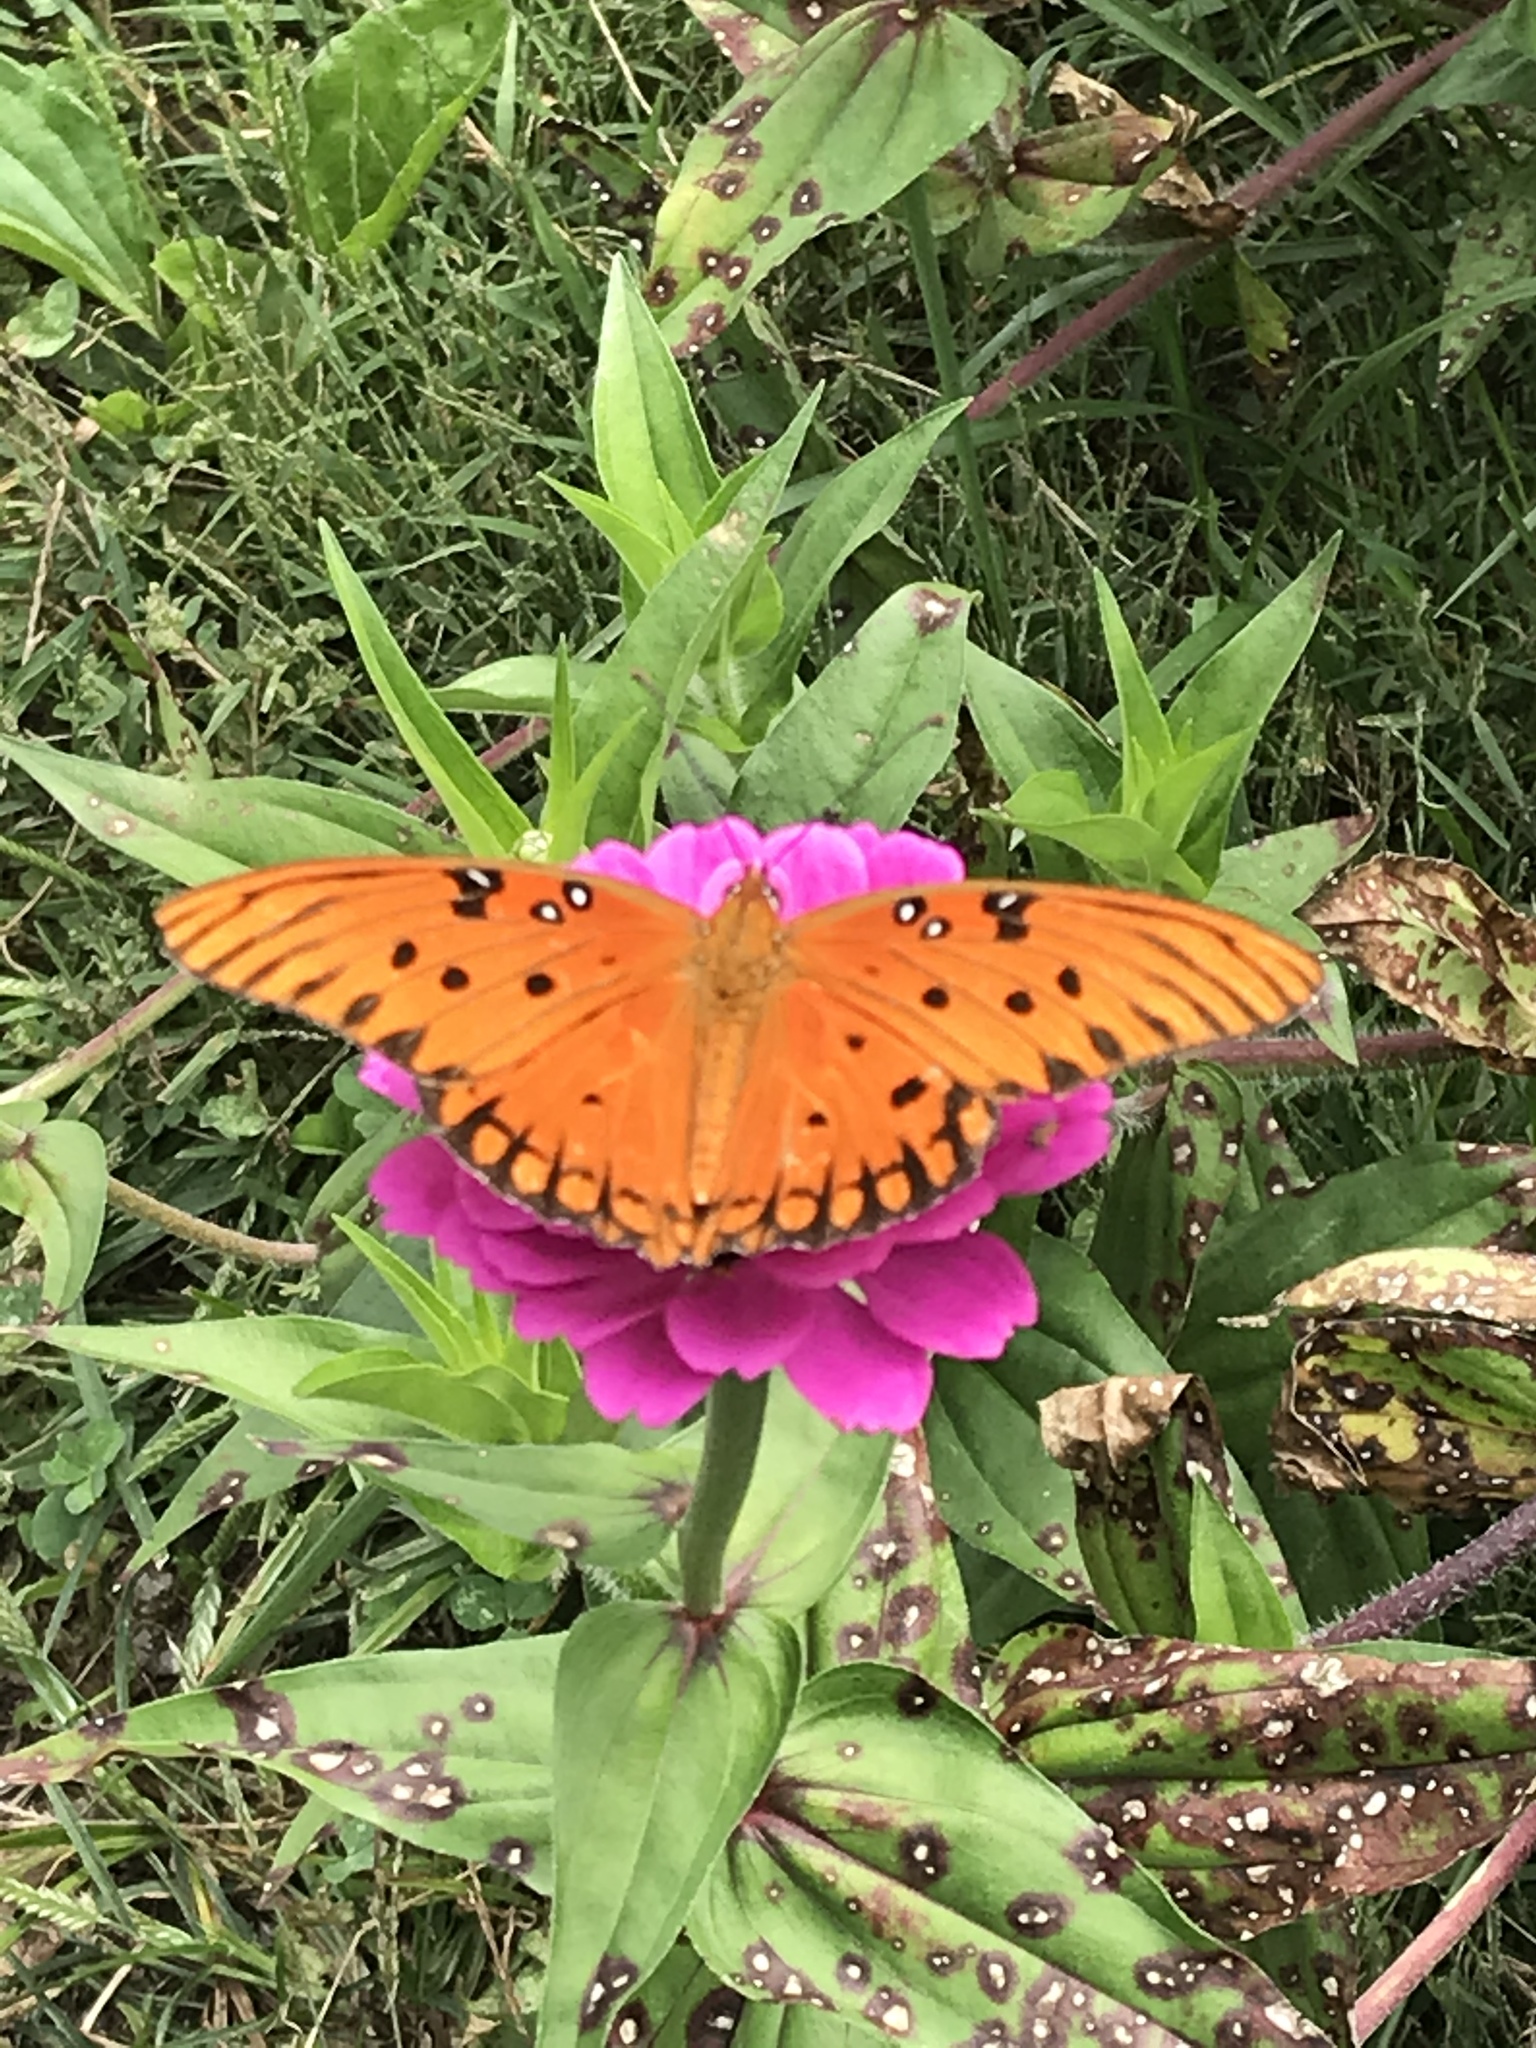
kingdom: Animalia
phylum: Arthropoda
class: Insecta
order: Lepidoptera
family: Nymphalidae
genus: Dione
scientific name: Dione vanillae
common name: Gulf fritillary
